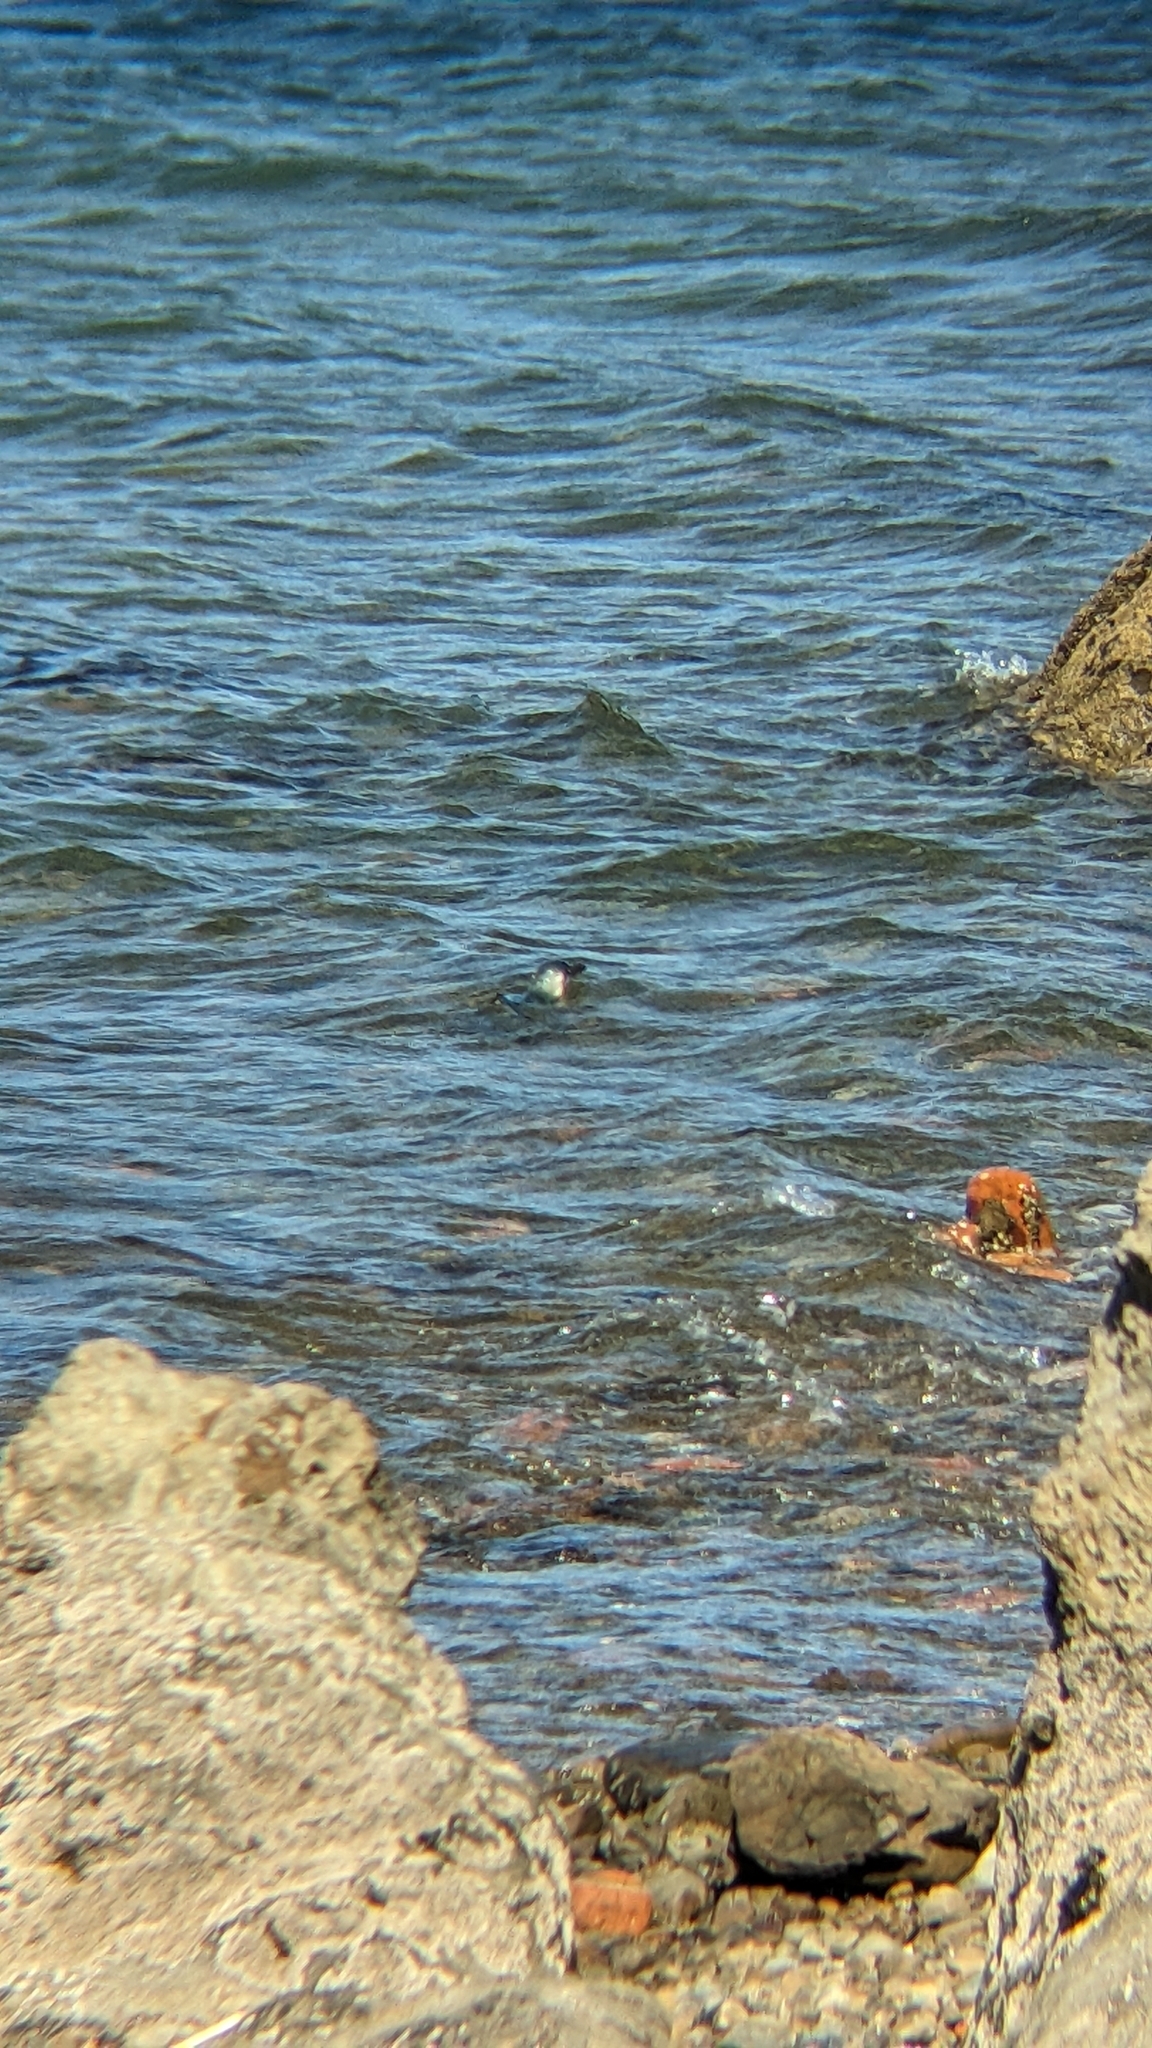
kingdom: Animalia
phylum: Chordata
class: Aves
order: Sphenisciformes
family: Spheniscidae
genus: Eudyptula
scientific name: Eudyptula minor
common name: Little penguin
